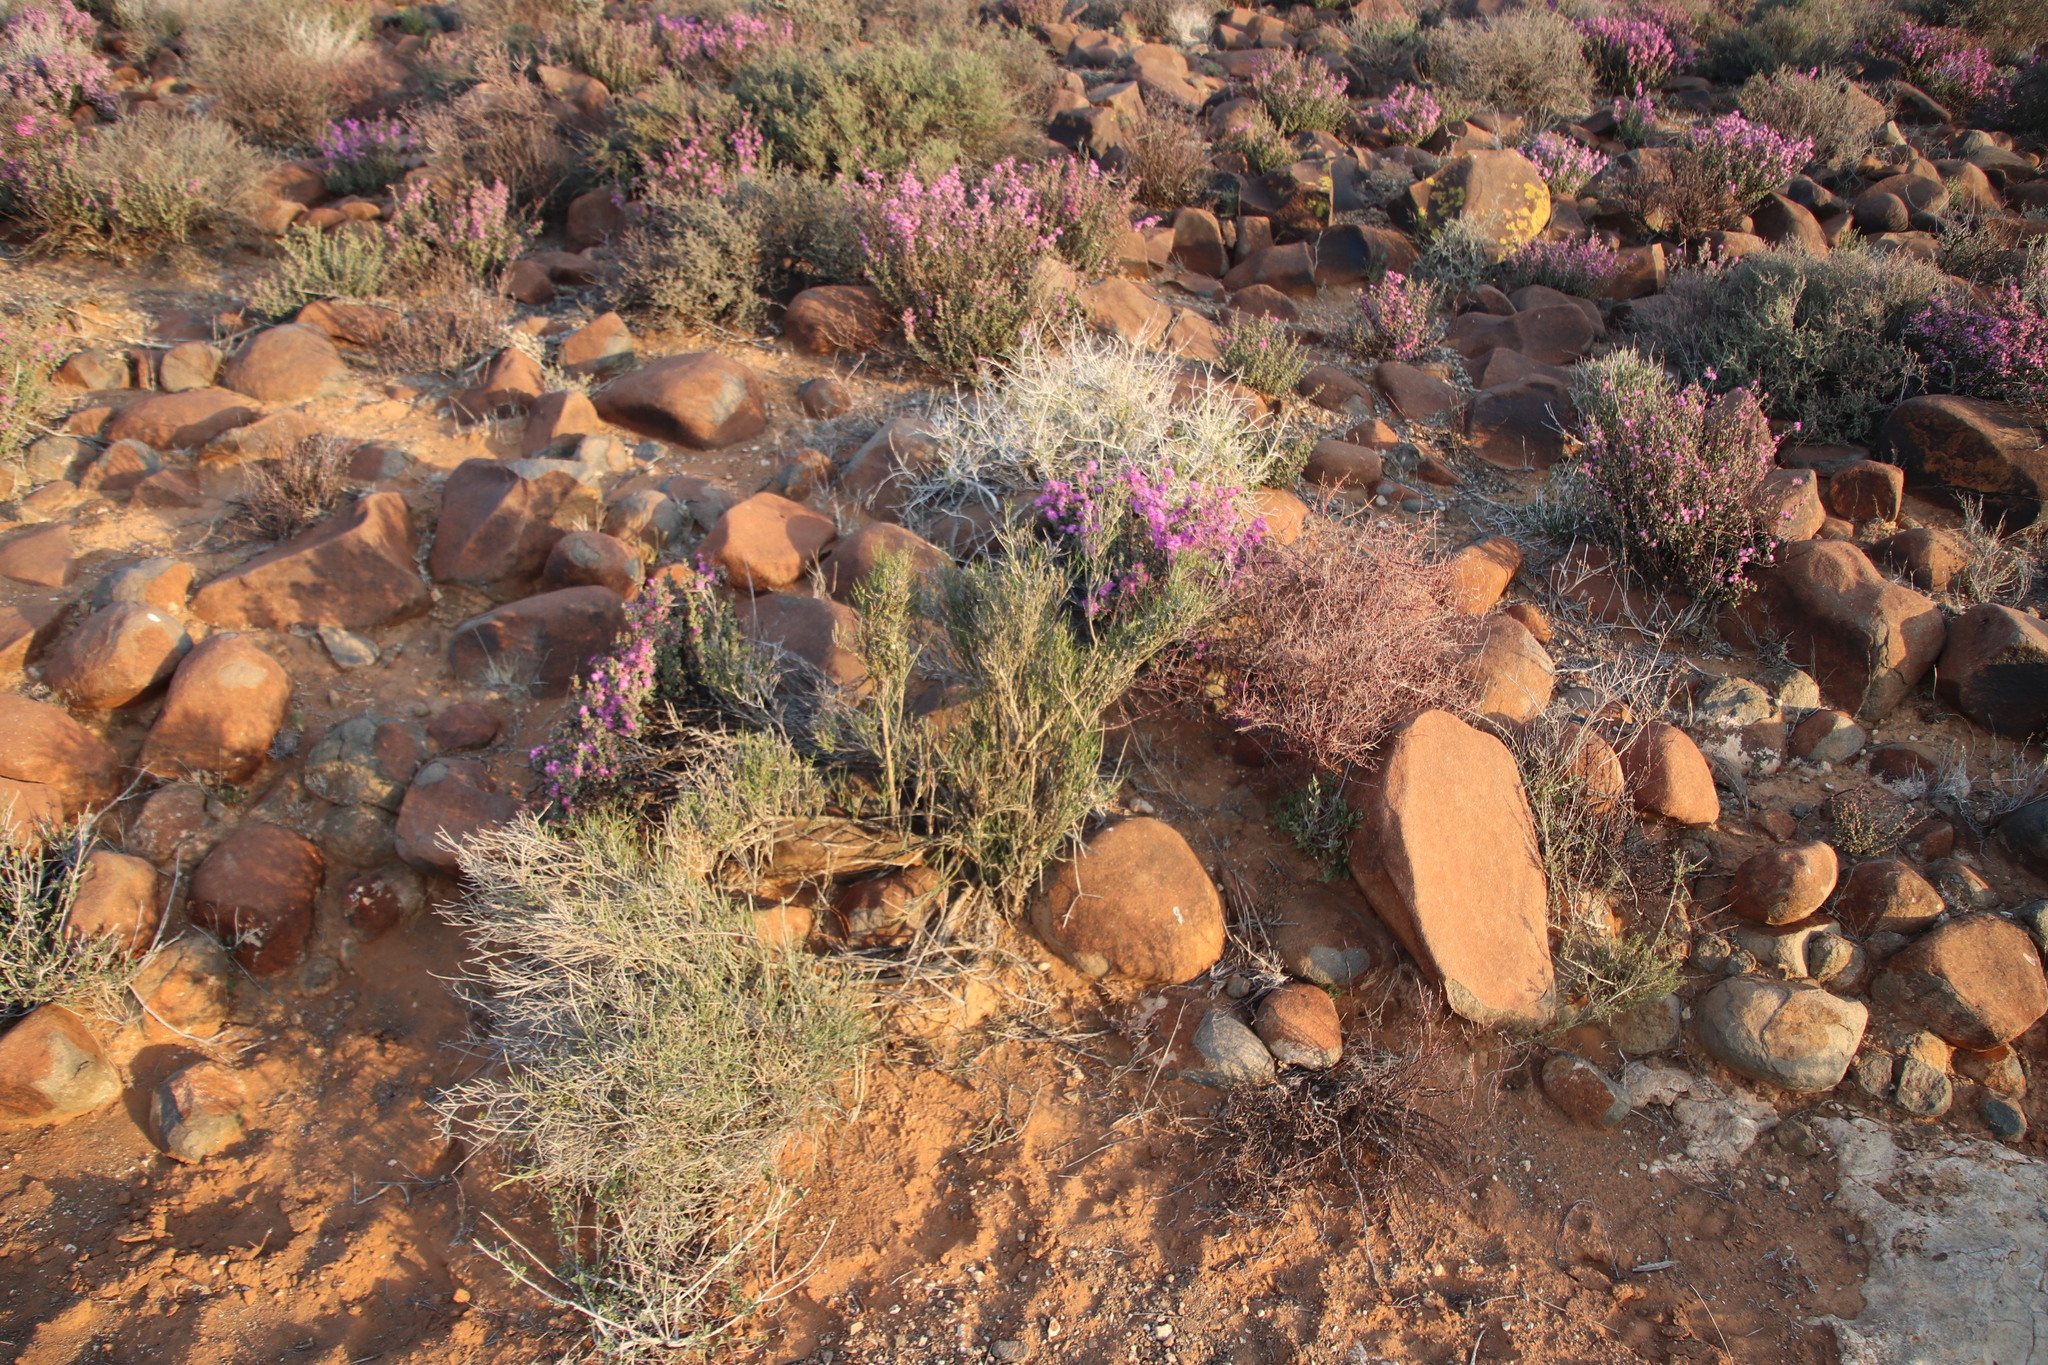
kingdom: Plantae
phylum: Tracheophyta
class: Magnoliopsida
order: Santalales
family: Thesiaceae
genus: Lacomucinaea
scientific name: Lacomucinaea lineata
